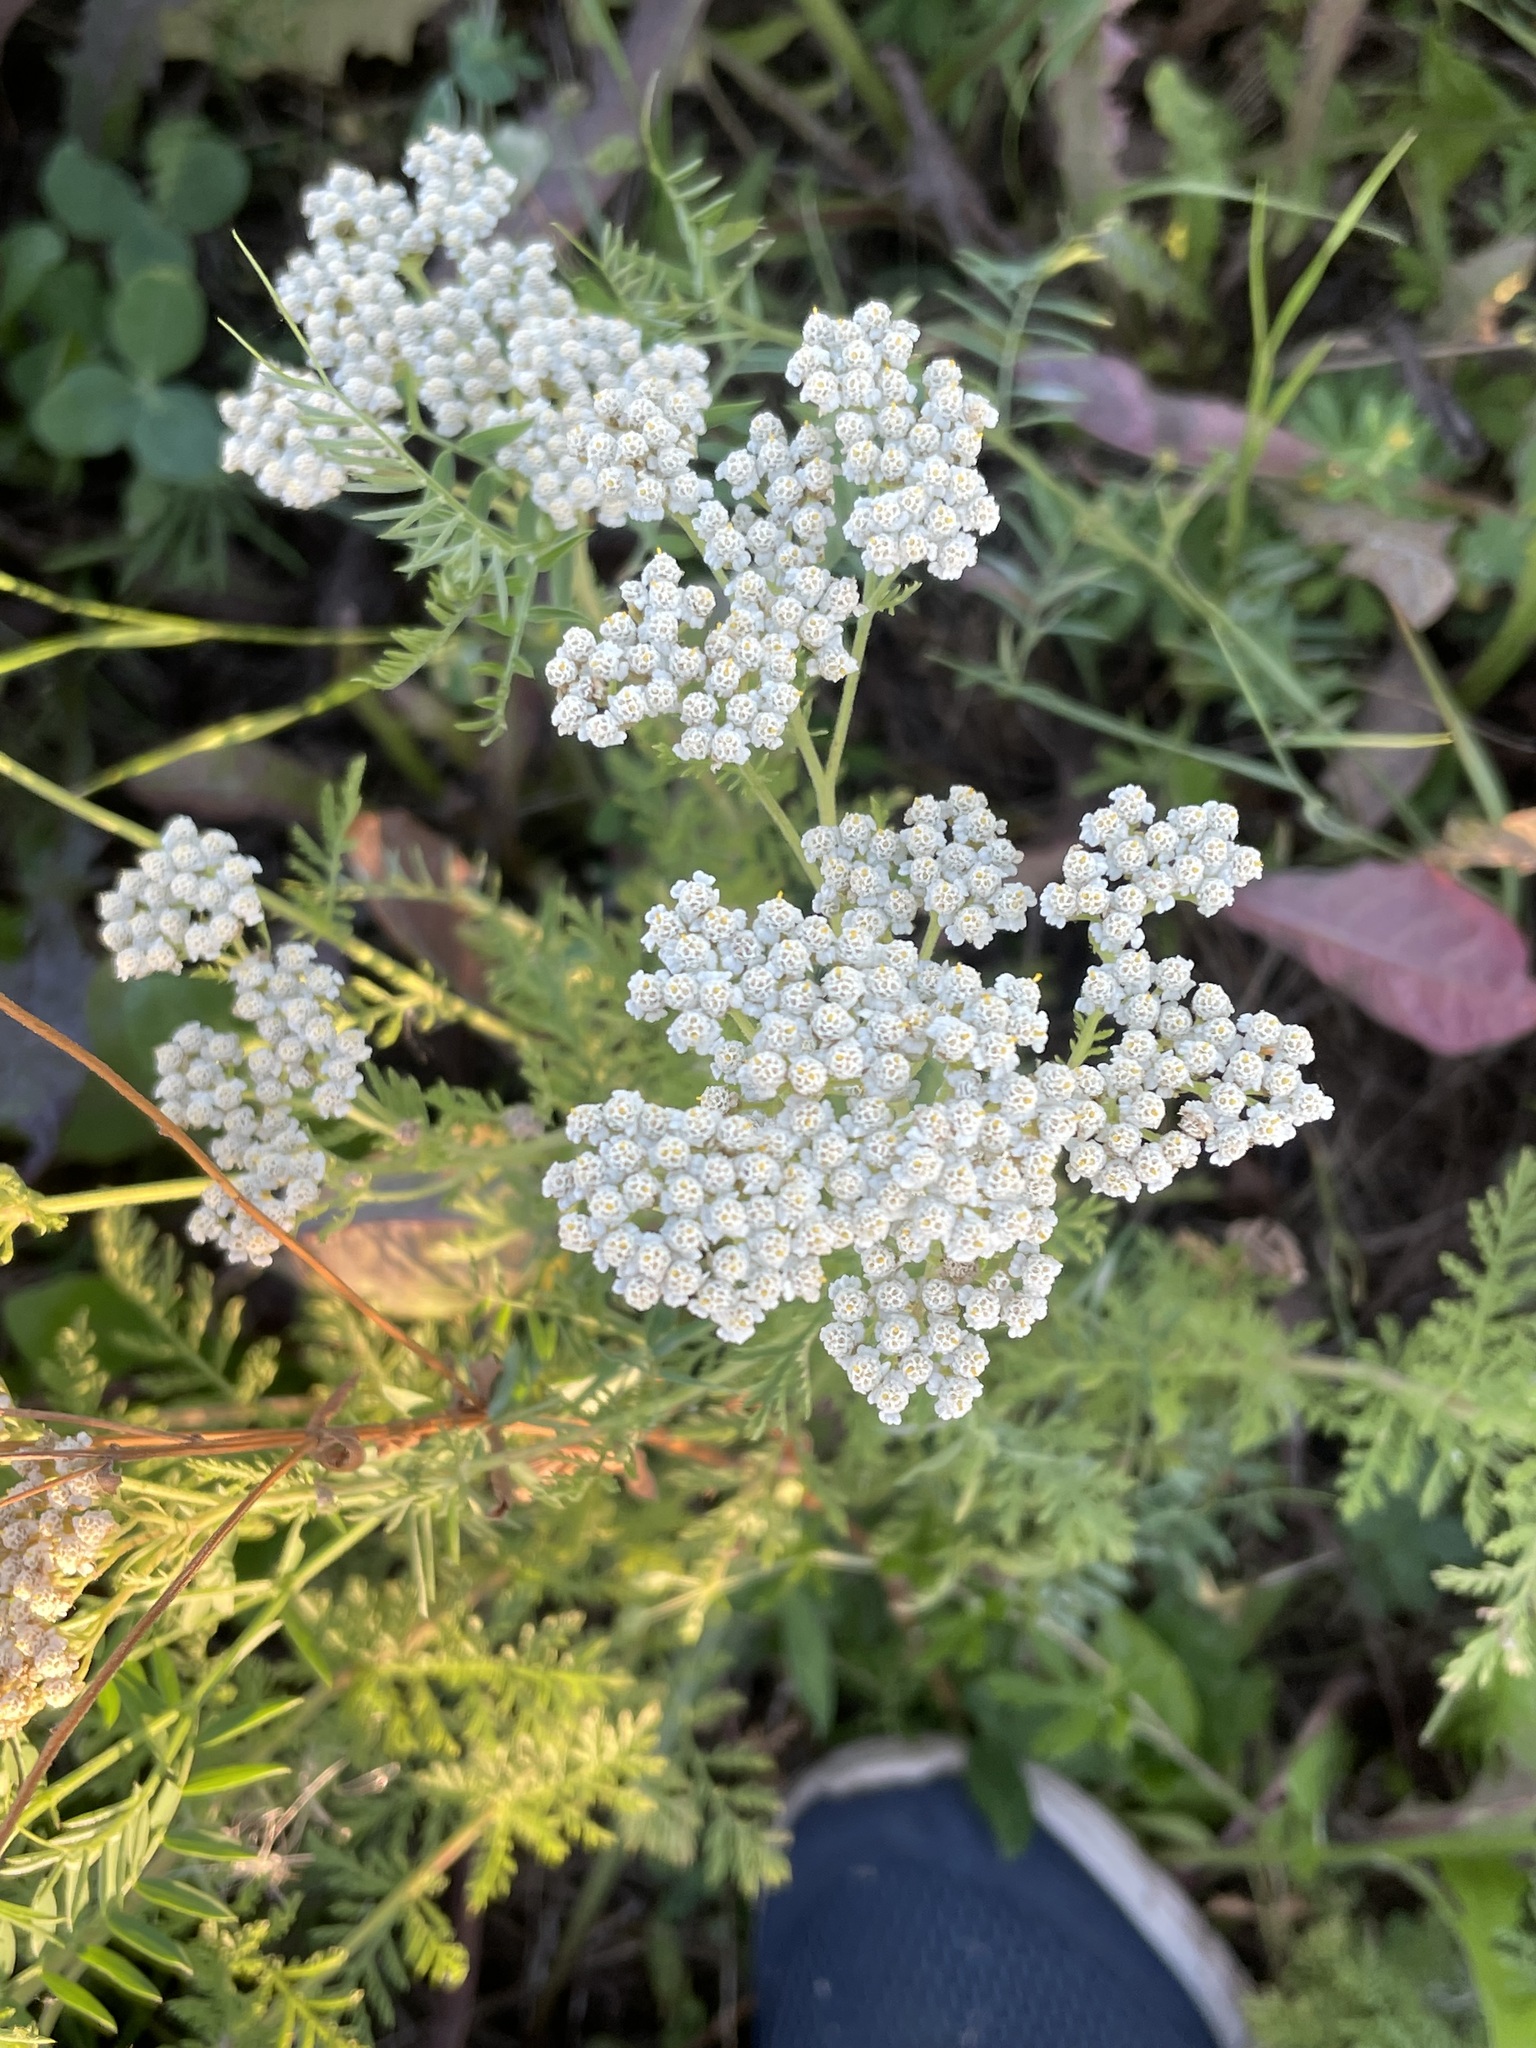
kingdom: Plantae
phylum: Tracheophyta
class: Magnoliopsida
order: Asterales
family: Asteraceae
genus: Achillea
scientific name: Achillea nobilis
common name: Noble yarrow
